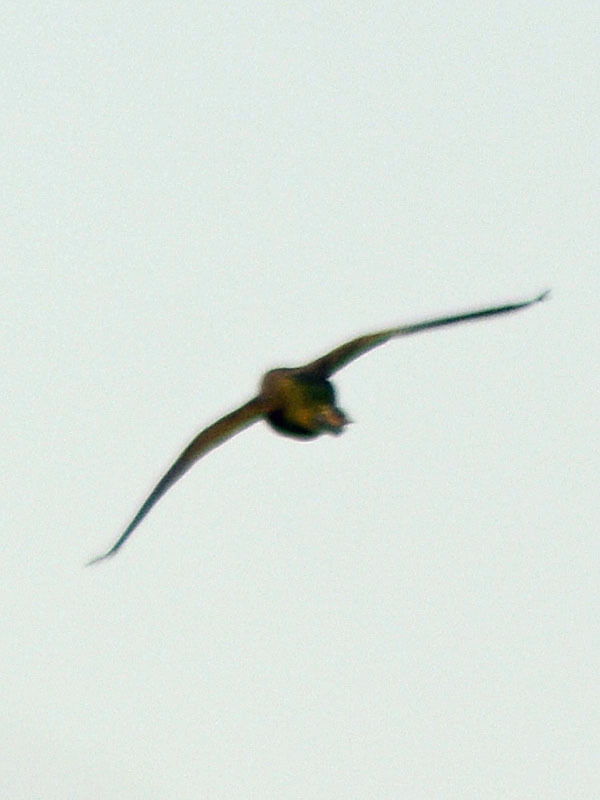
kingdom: Animalia
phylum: Chordata
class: Aves
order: Psittaciformes
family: Psittacidae
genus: Myiopsitta
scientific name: Myiopsitta monachus
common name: Monk parakeet
